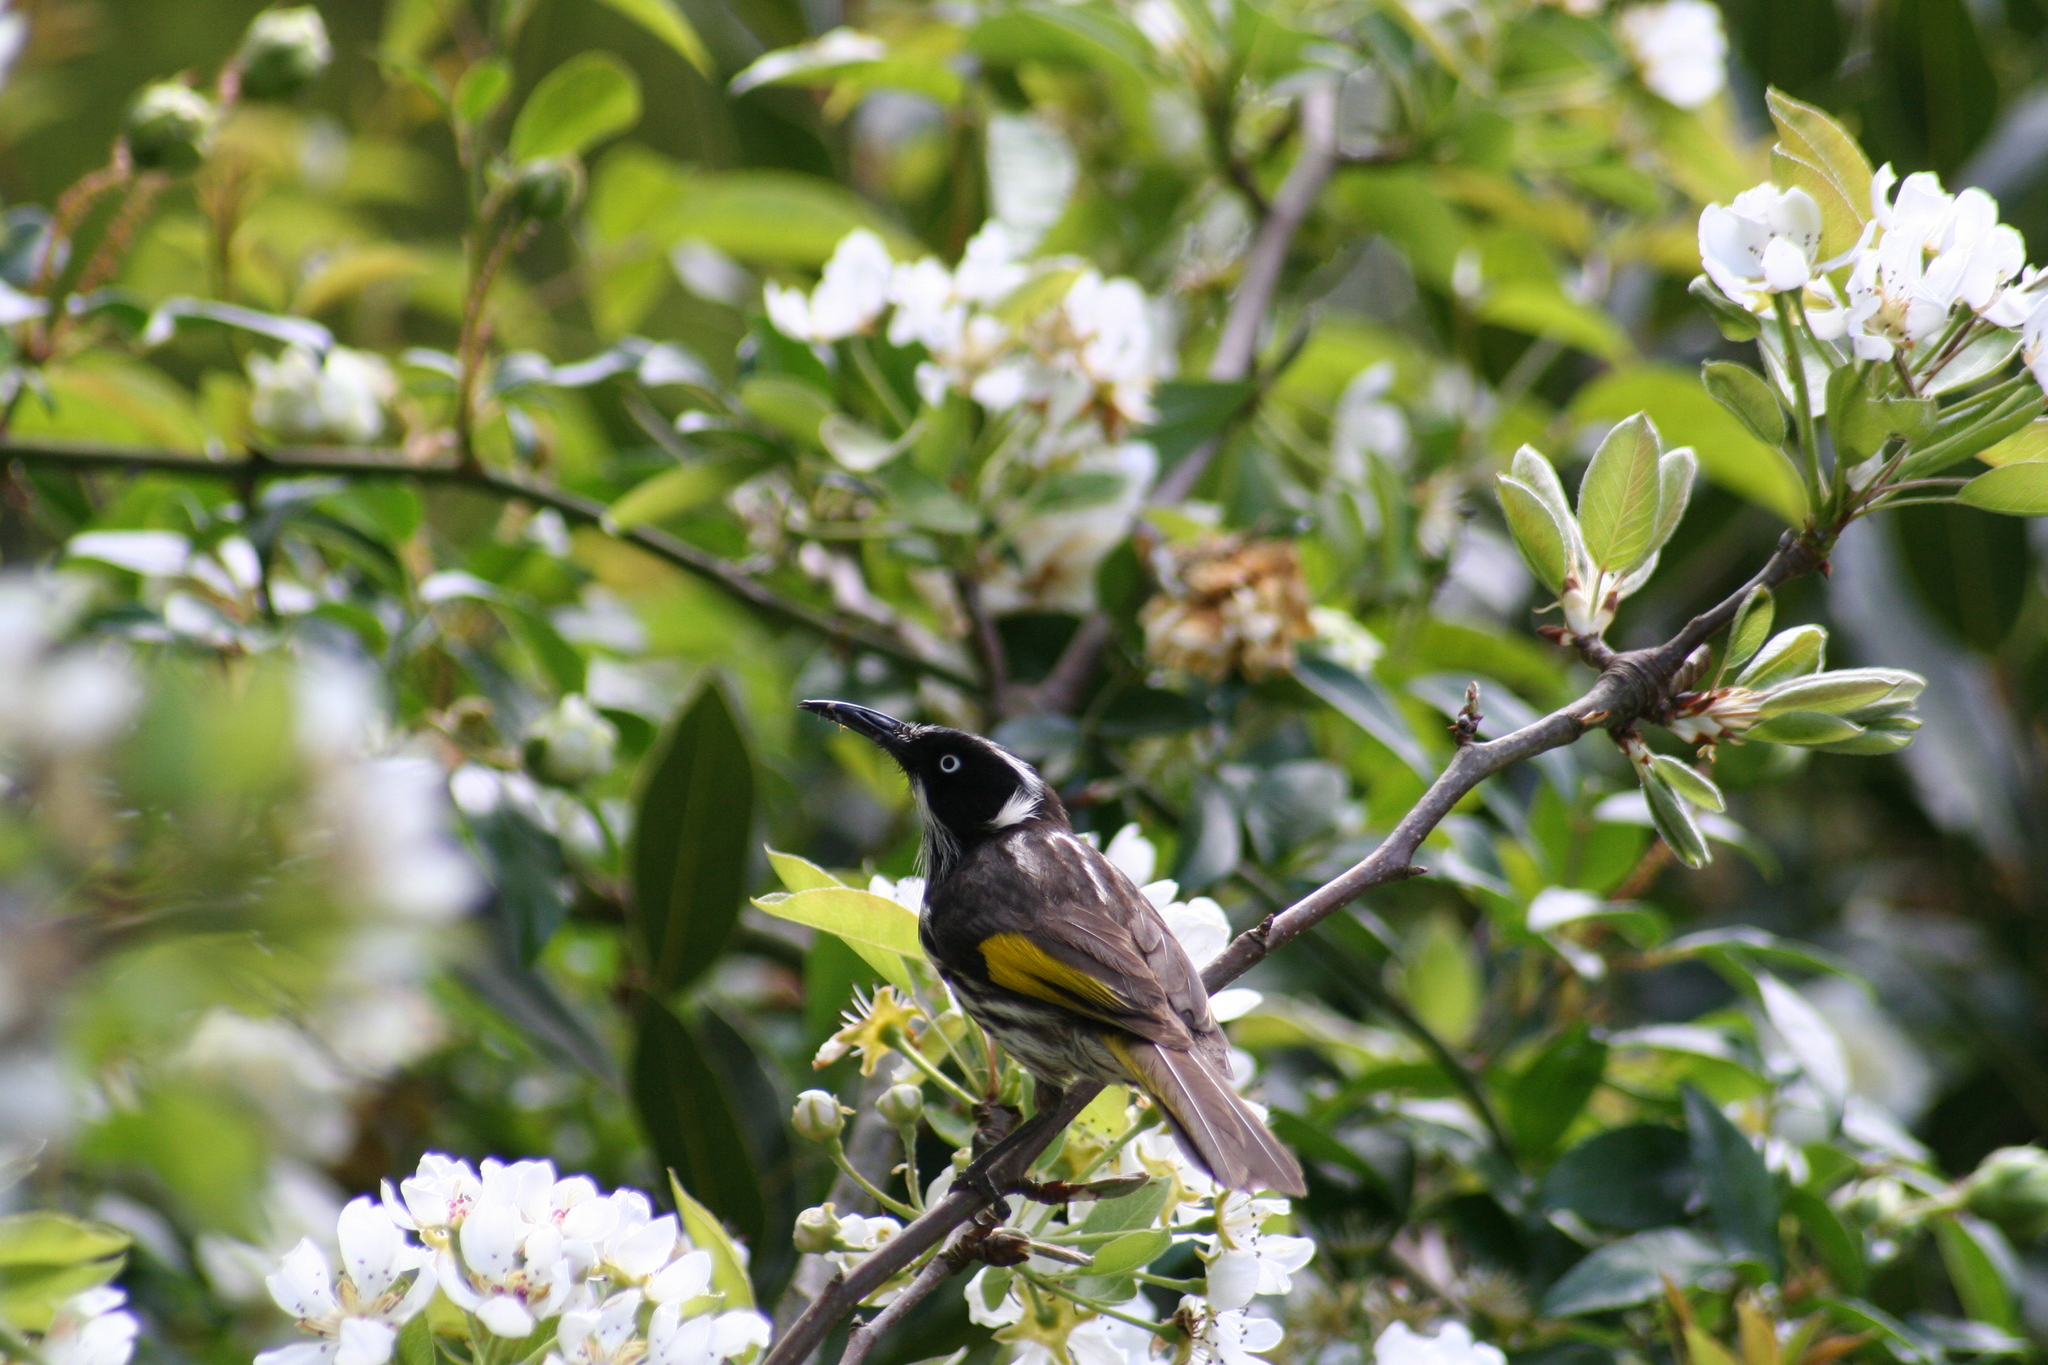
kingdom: Animalia
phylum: Chordata
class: Aves
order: Passeriformes
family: Meliphagidae
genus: Phylidonyris
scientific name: Phylidonyris novaehollandiae
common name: New holland honeyeater
